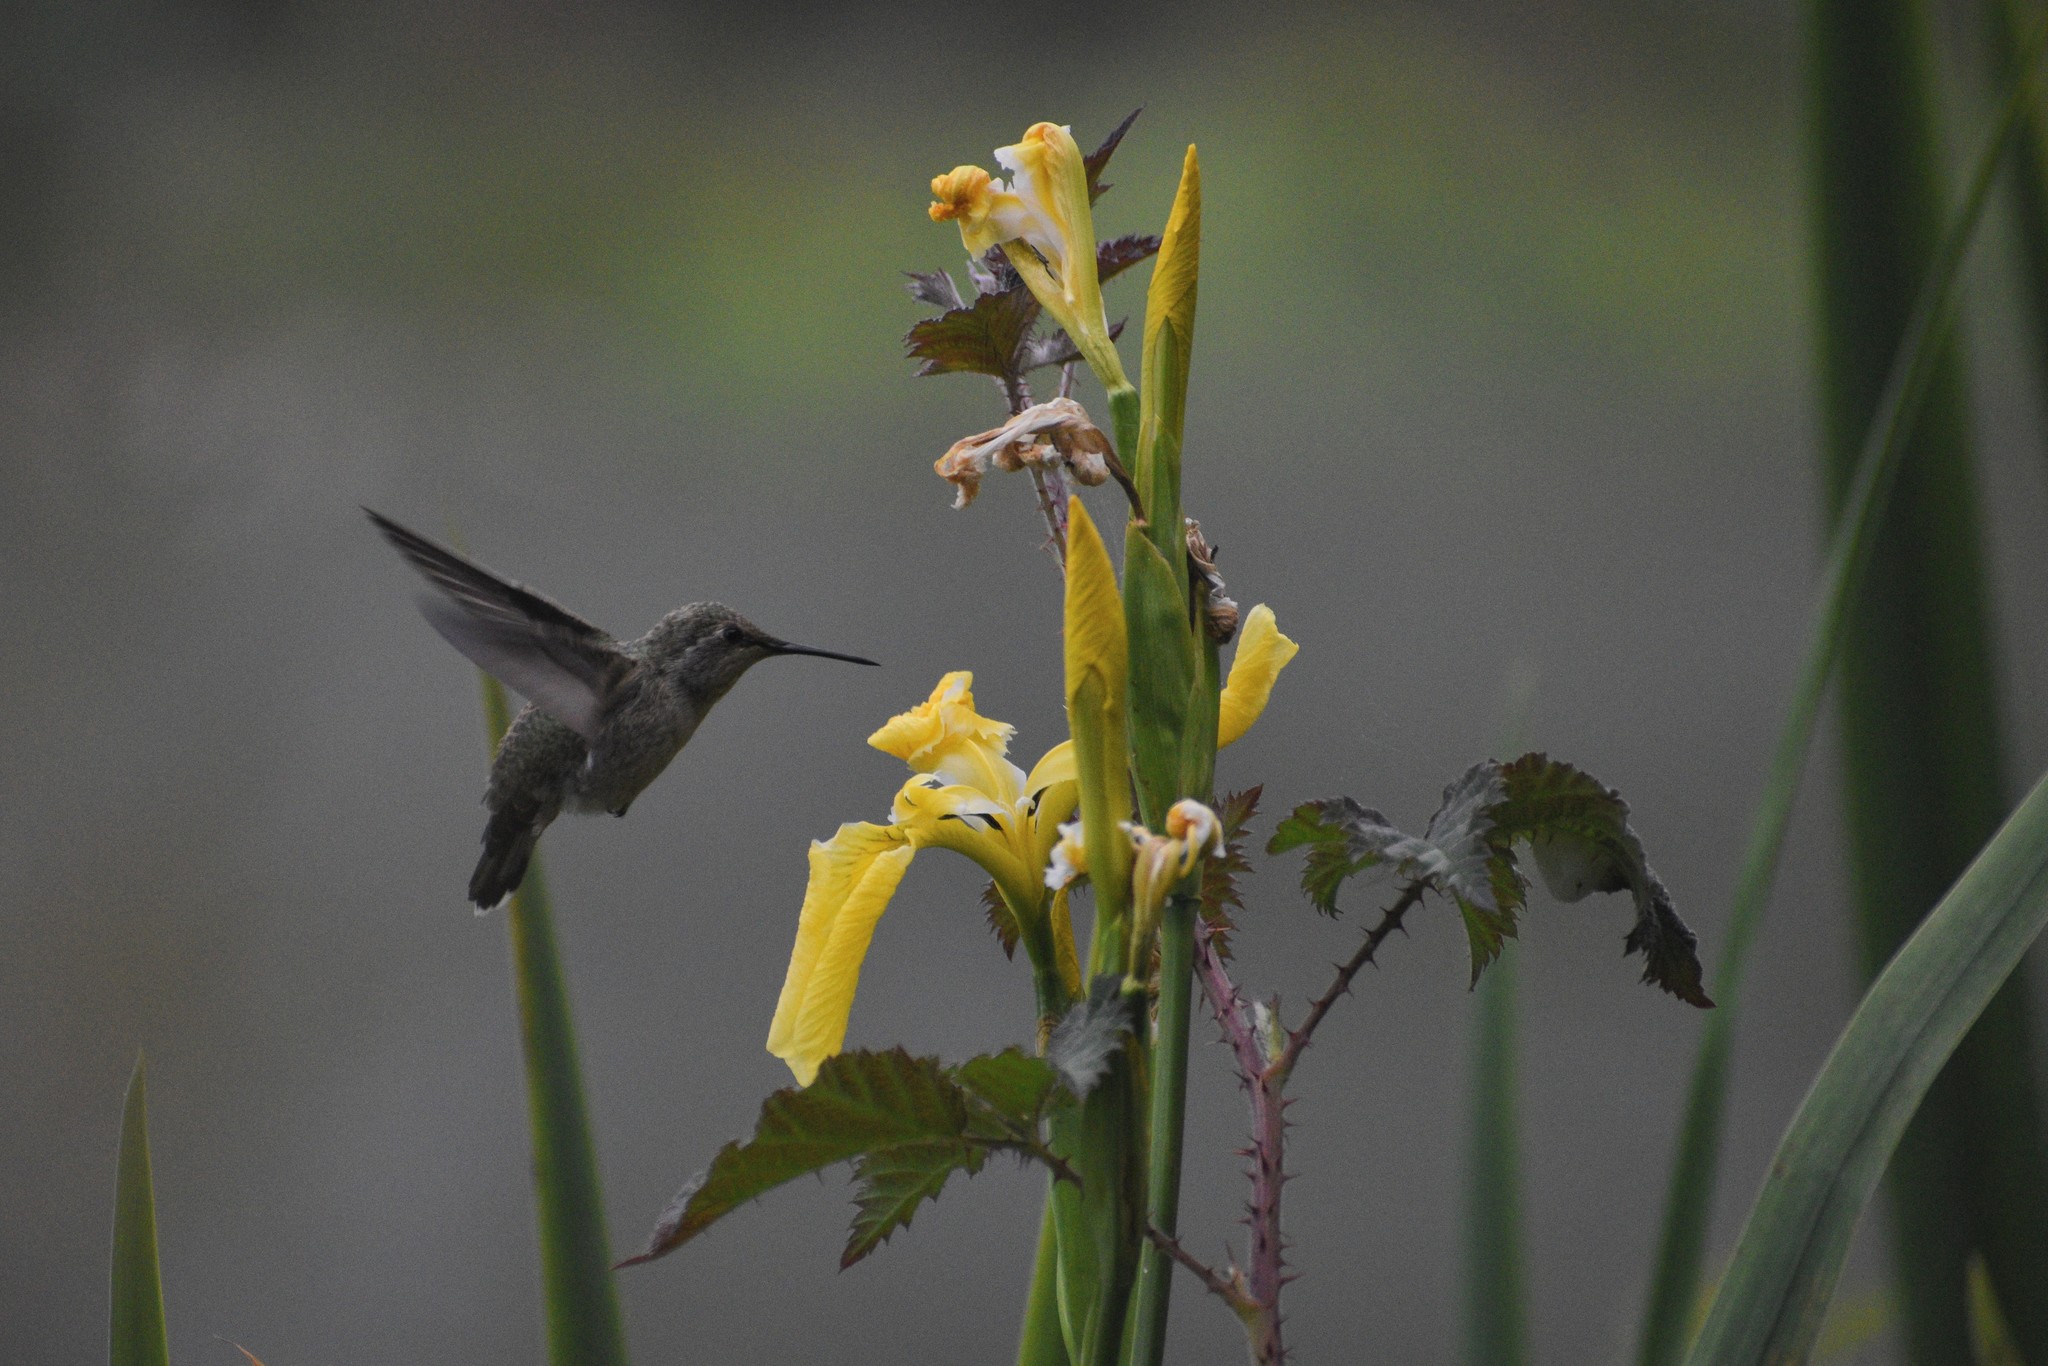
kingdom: Animalia
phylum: Chordata
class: Aves
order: Apodiformes
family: Trochilidae
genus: Calypte
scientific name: Calypte anna
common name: Anna's hummingbird
